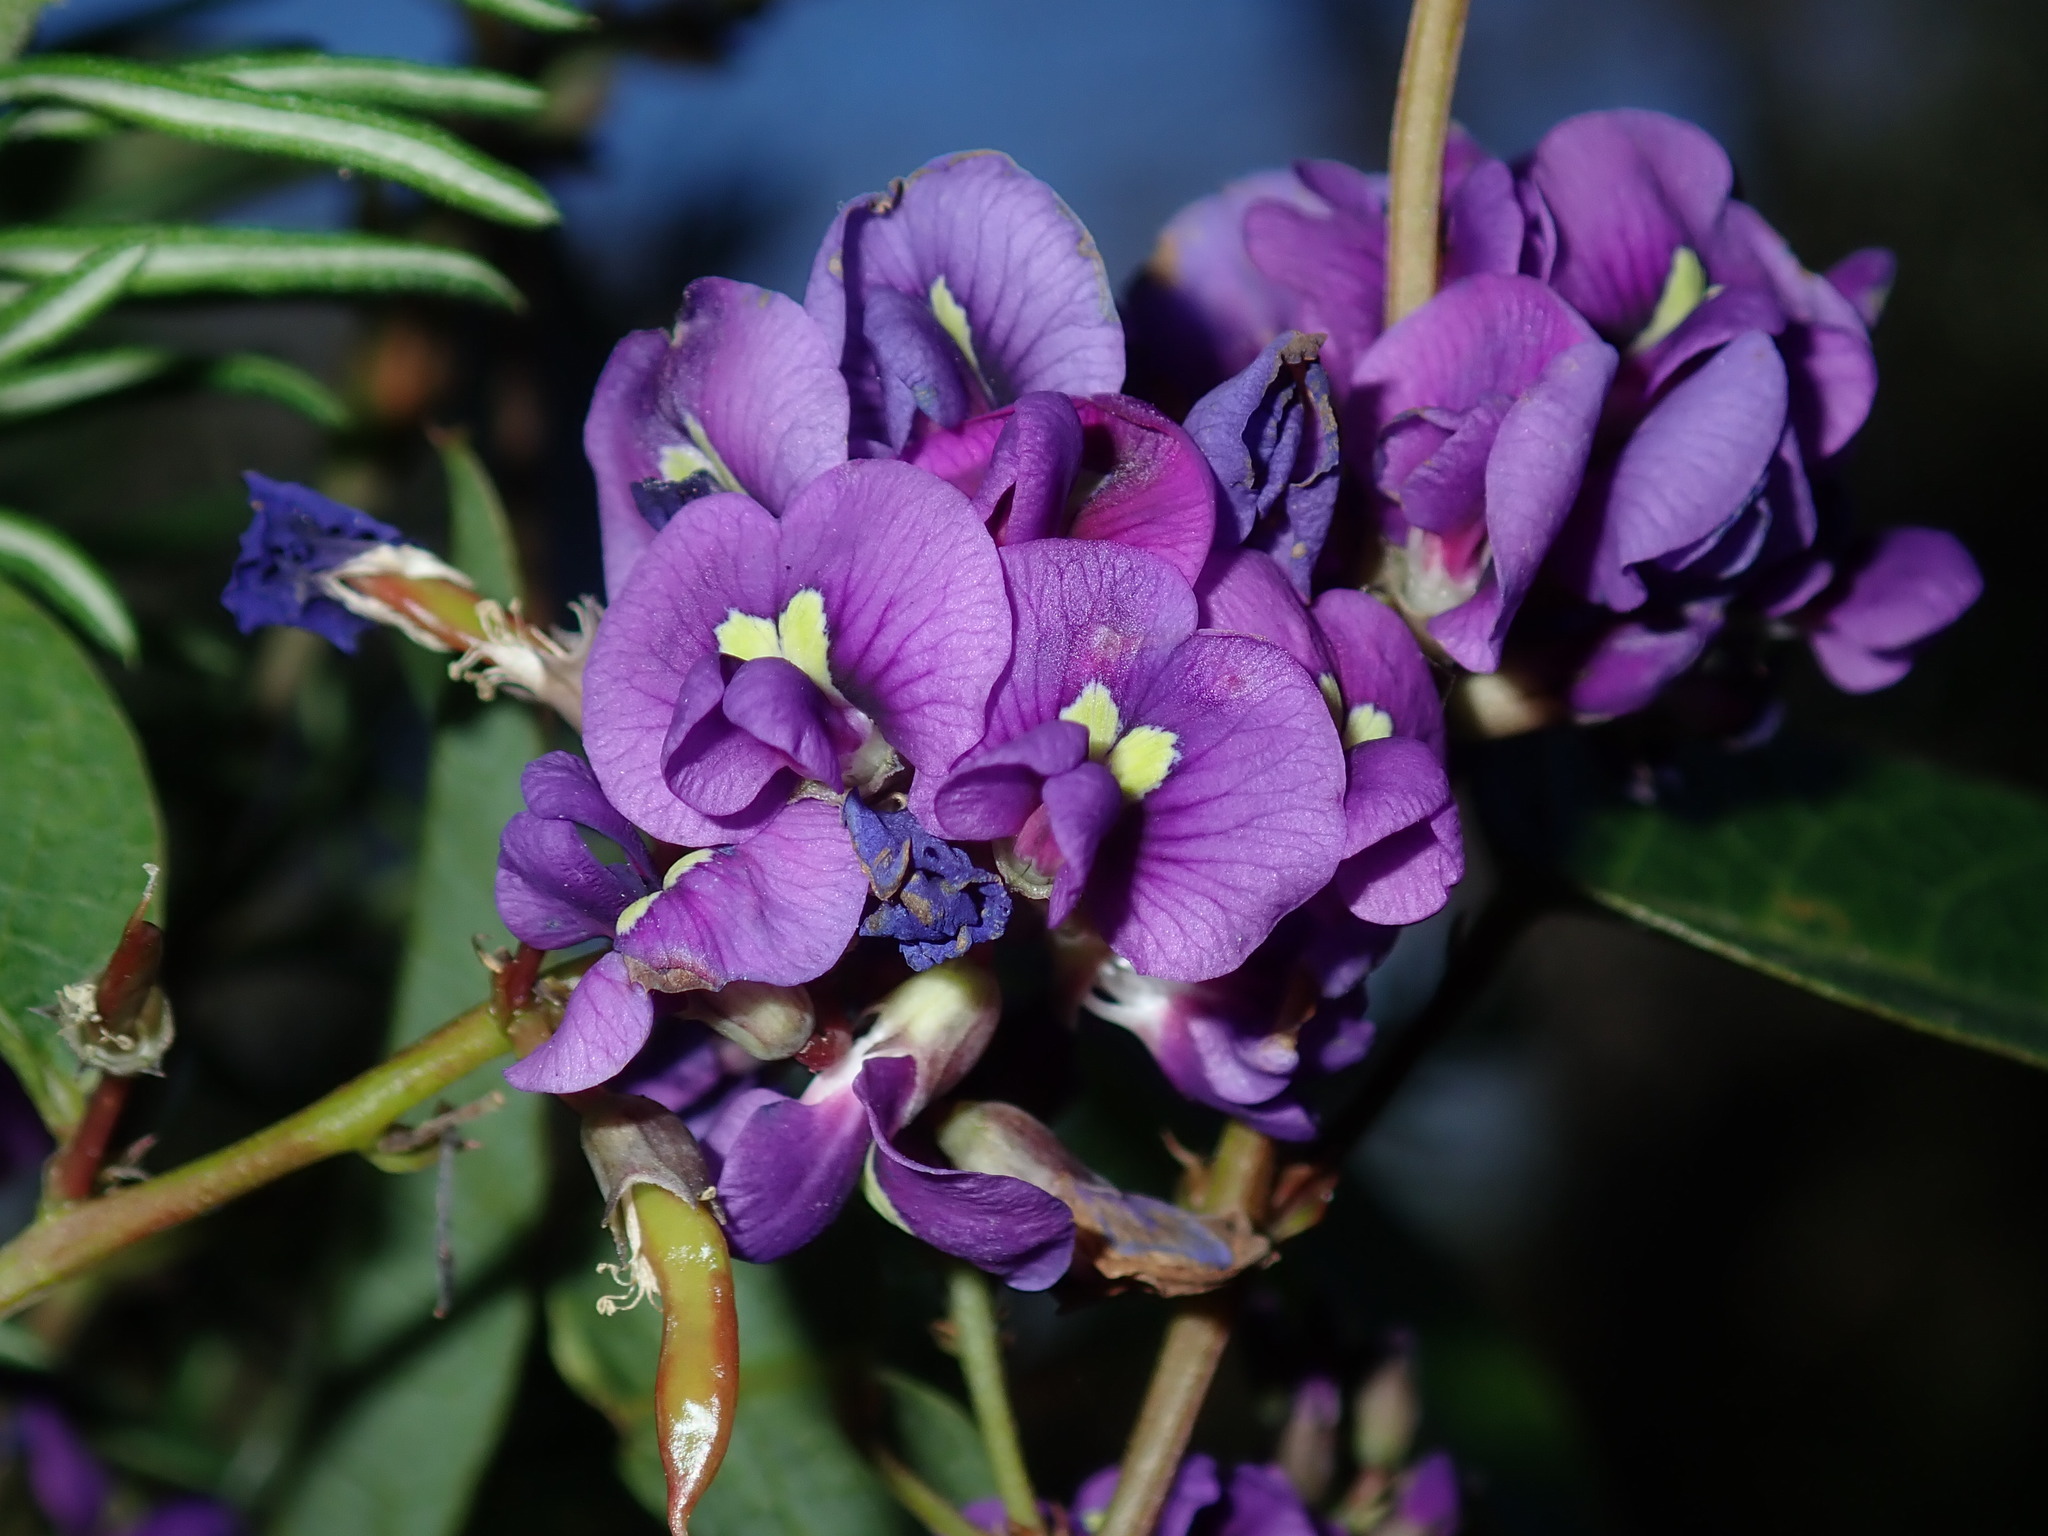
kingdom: Plantae
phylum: Tracheophyta
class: Magnoliopsida
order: Fabales
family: Fabaceae
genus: Hardenbergia
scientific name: Hardenbergia violacea
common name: Coral-pea
